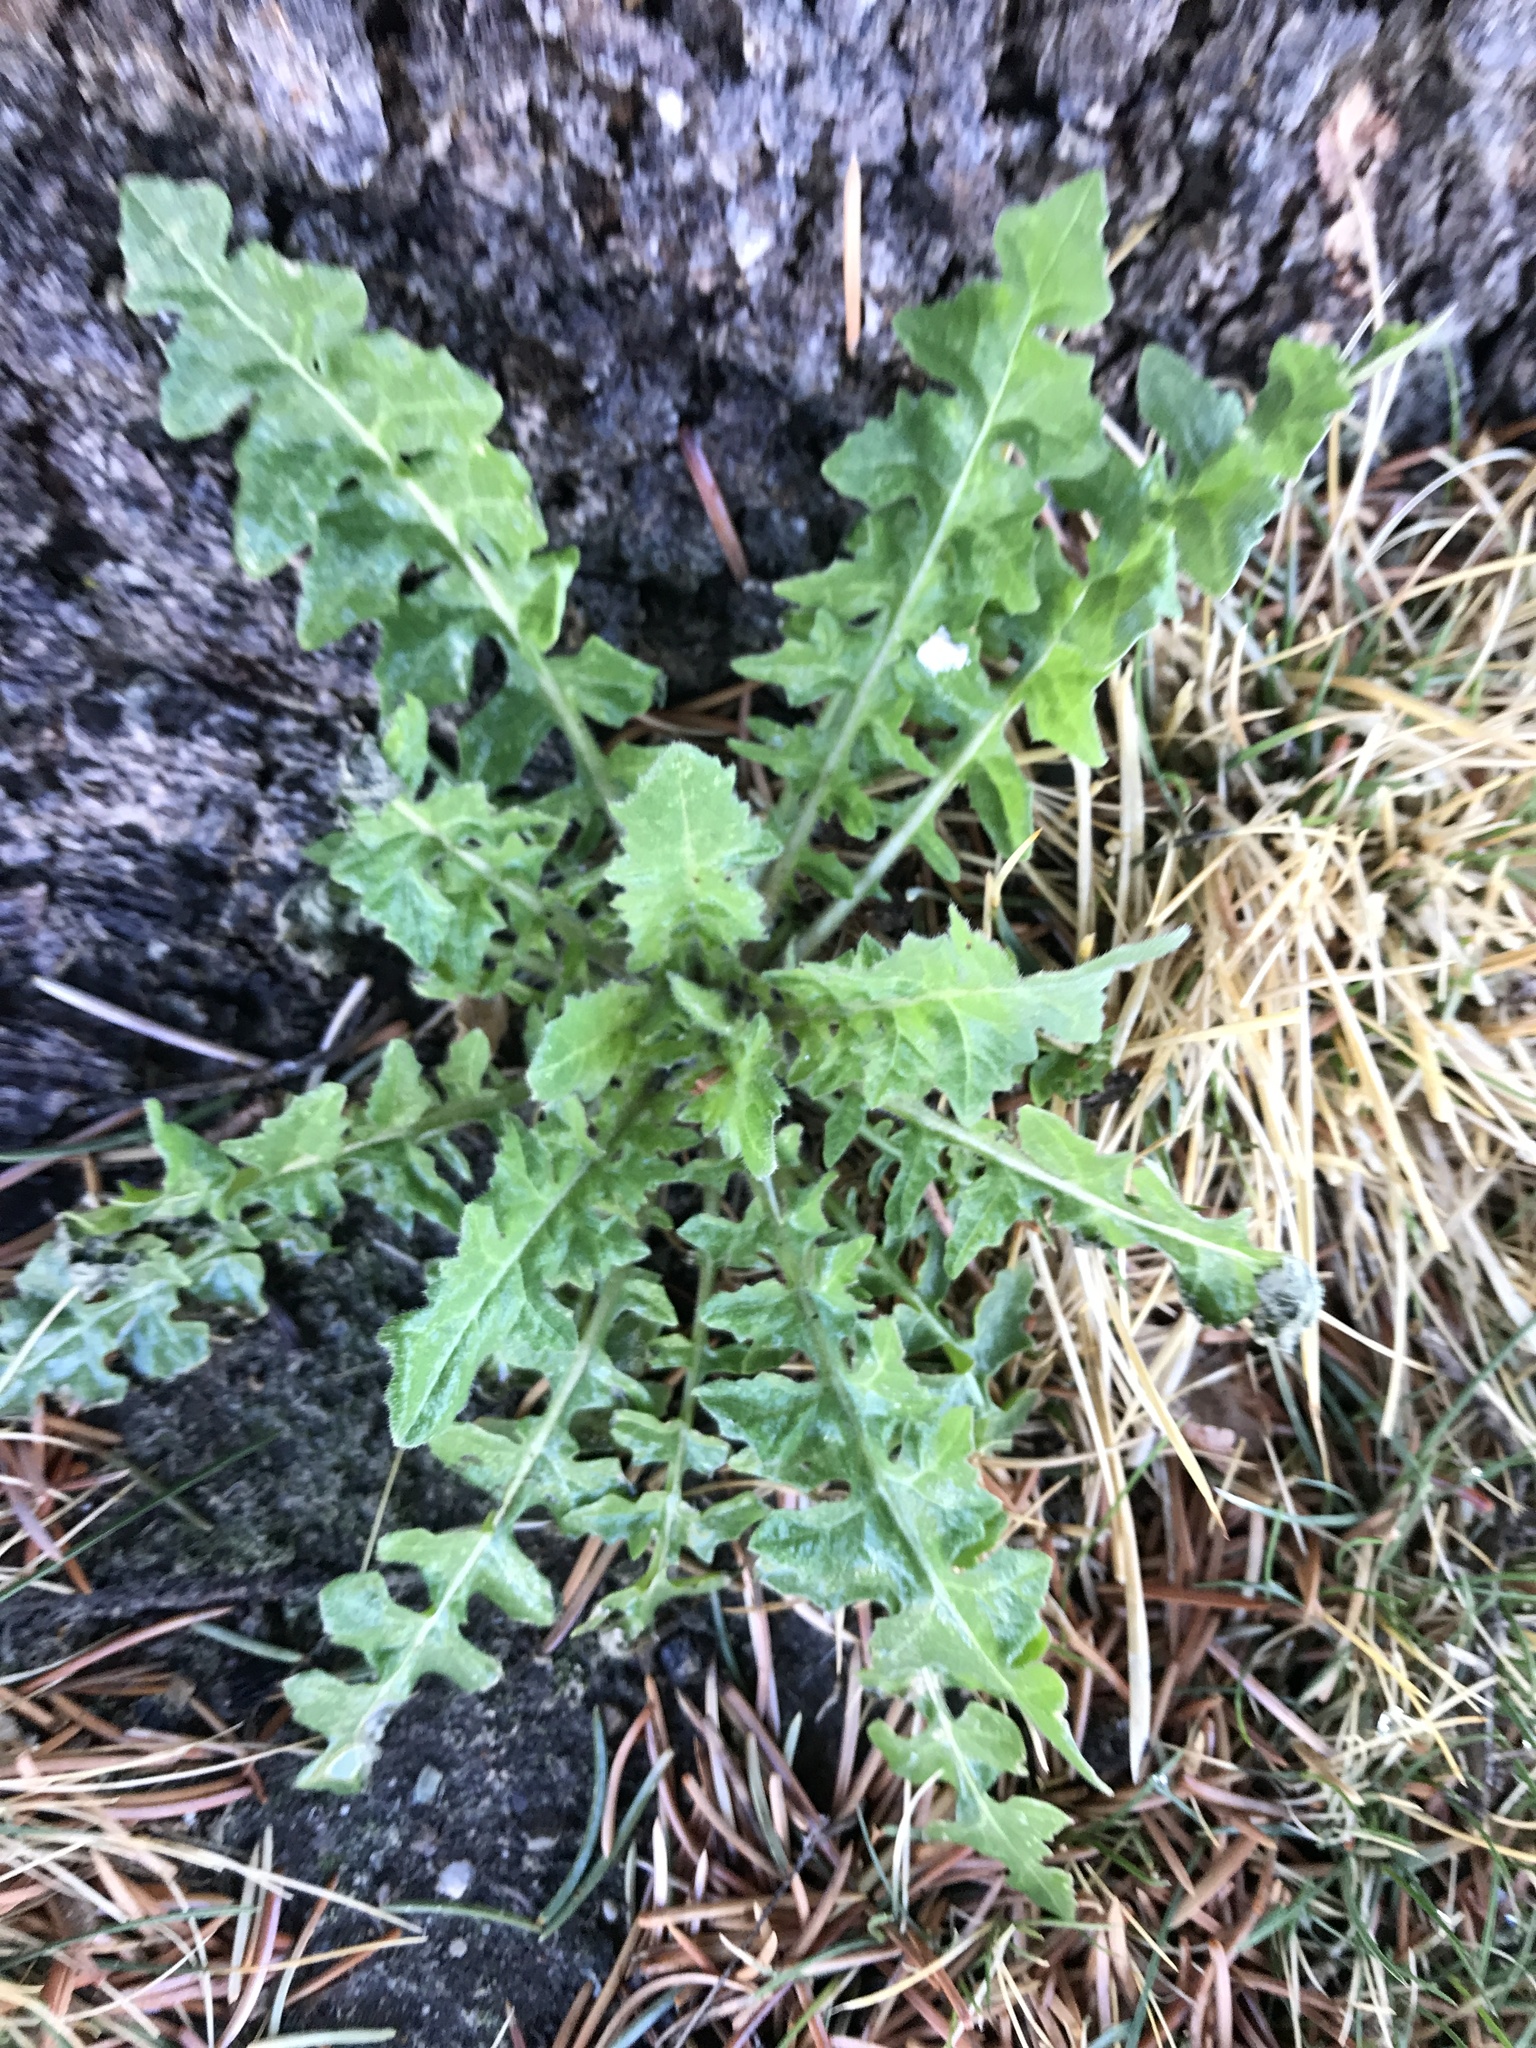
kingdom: Plantae
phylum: Tracheophyta
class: Magnoliopsida
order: Asterales
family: Asteraceae
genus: Taraxacum
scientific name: Taraxacum officinale
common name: Common dandelion
